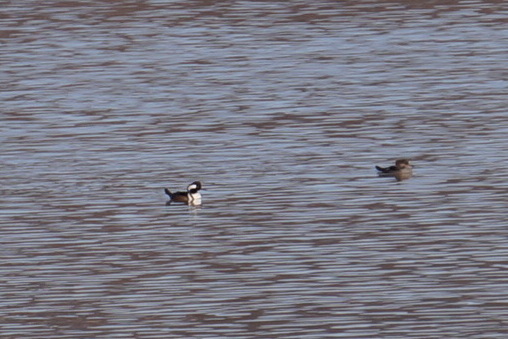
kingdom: Animalia
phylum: Chordata
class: Aves
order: Anseriformes
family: Anatidae
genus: Lophodytes
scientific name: Lophodytes cucullatus
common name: Hooded merganser
